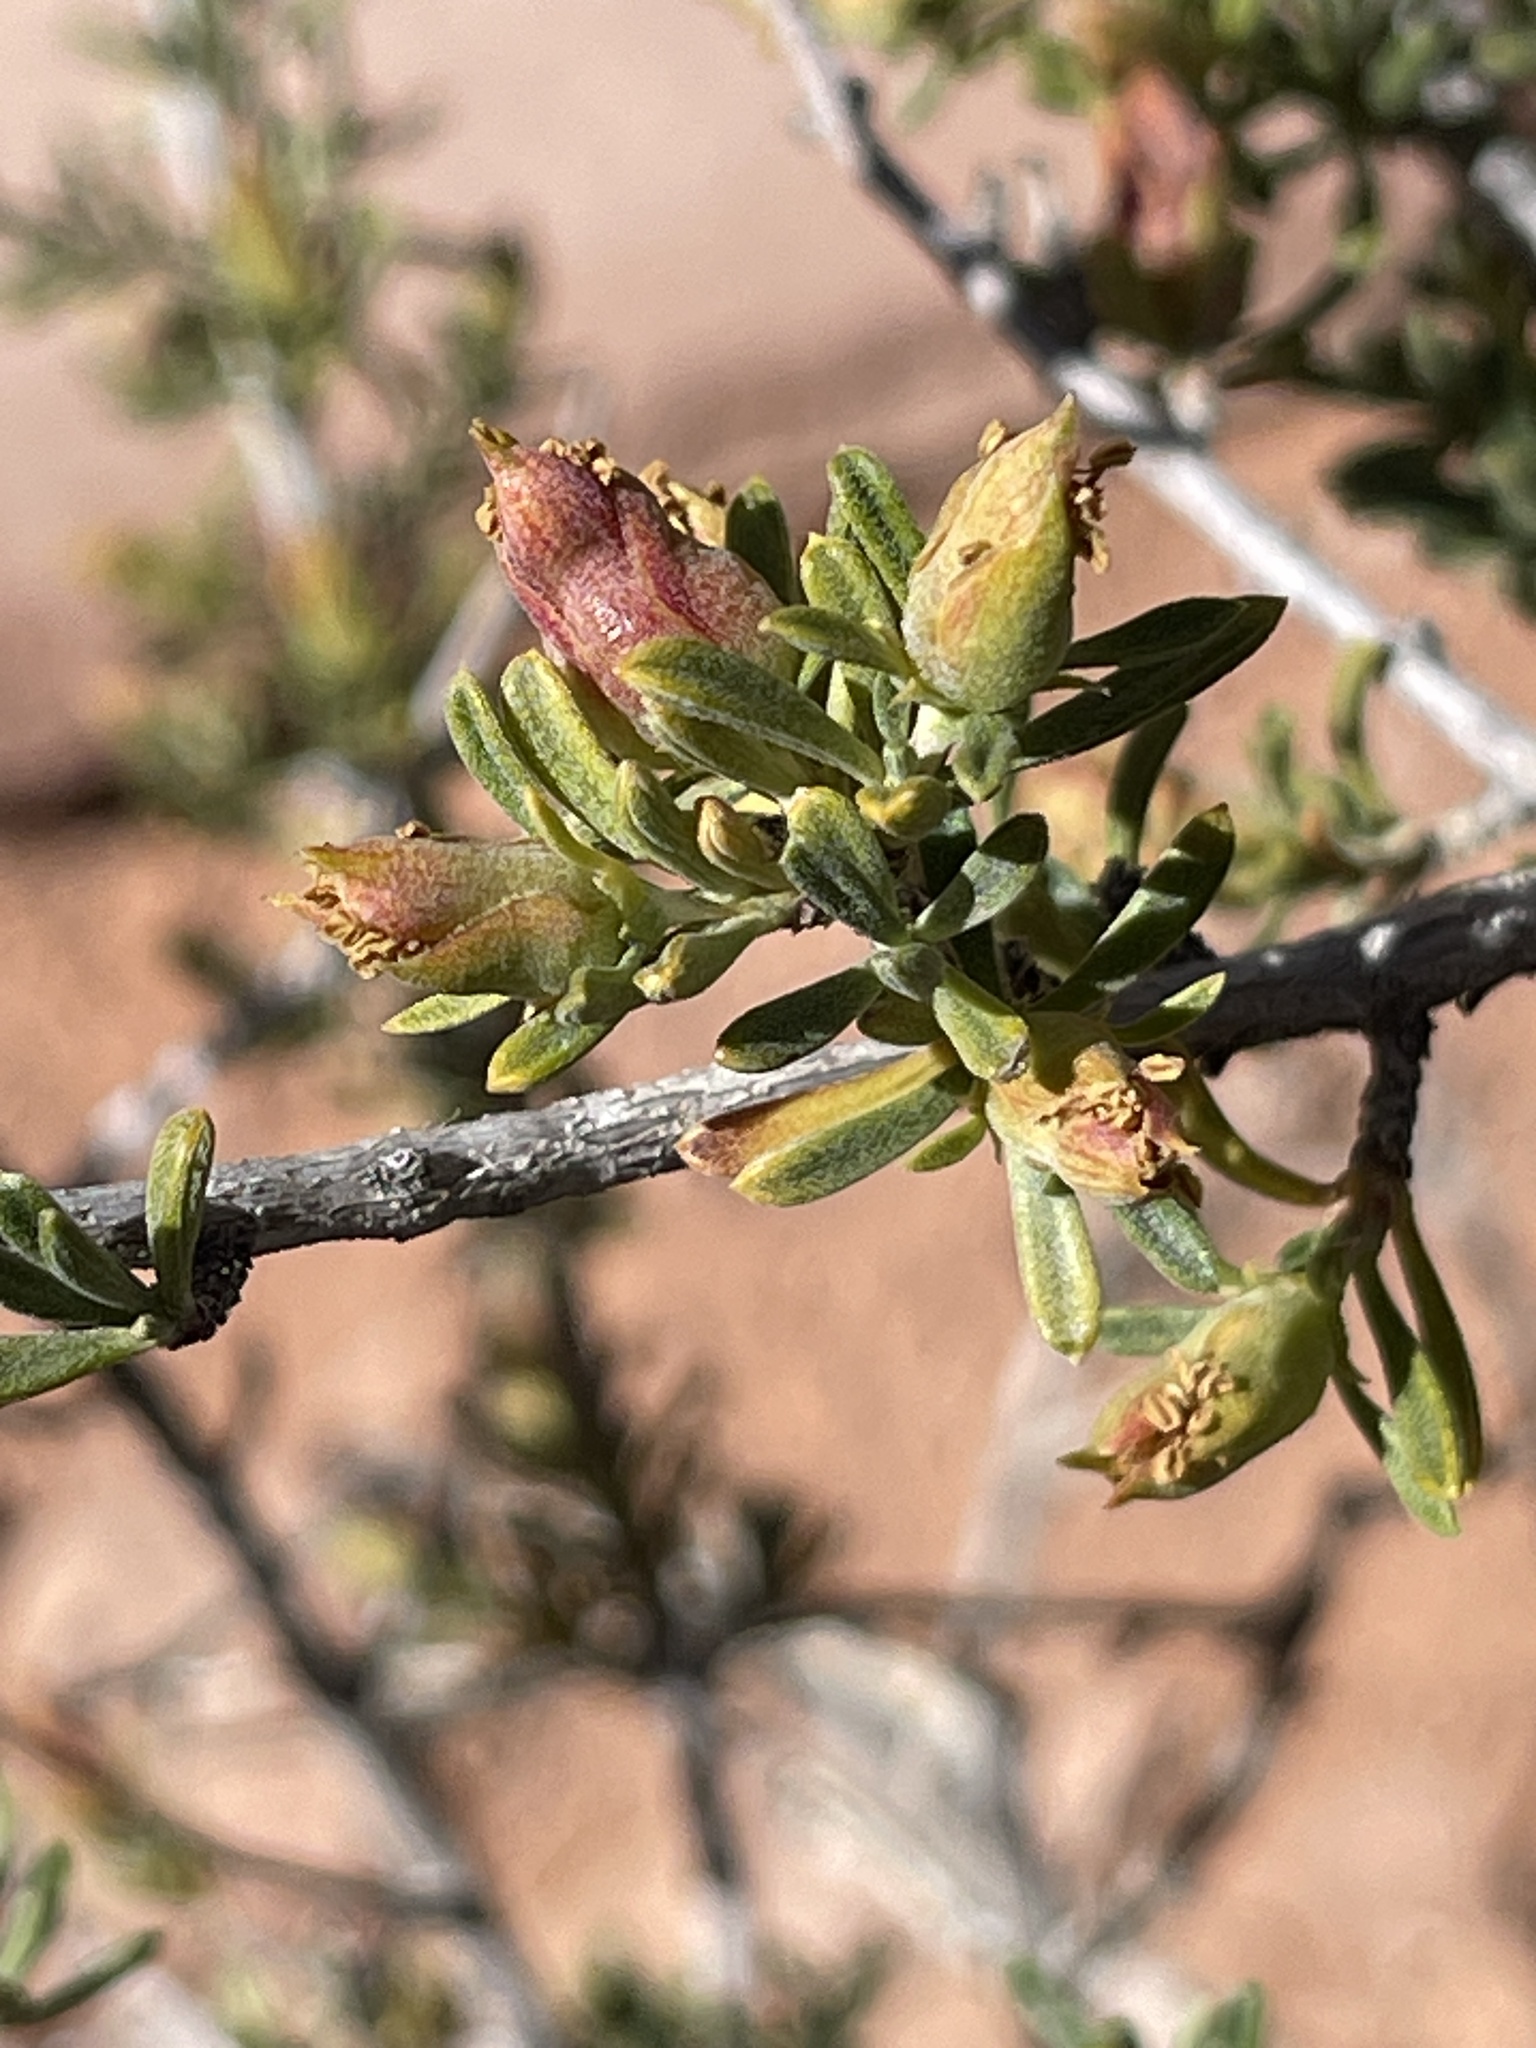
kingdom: Plantae
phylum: Tracheophyta
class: Magnoliopsida
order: Rosales
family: Rosaceae
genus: Coleogyne
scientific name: Coleogyne ramosissima
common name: Blackbrush
